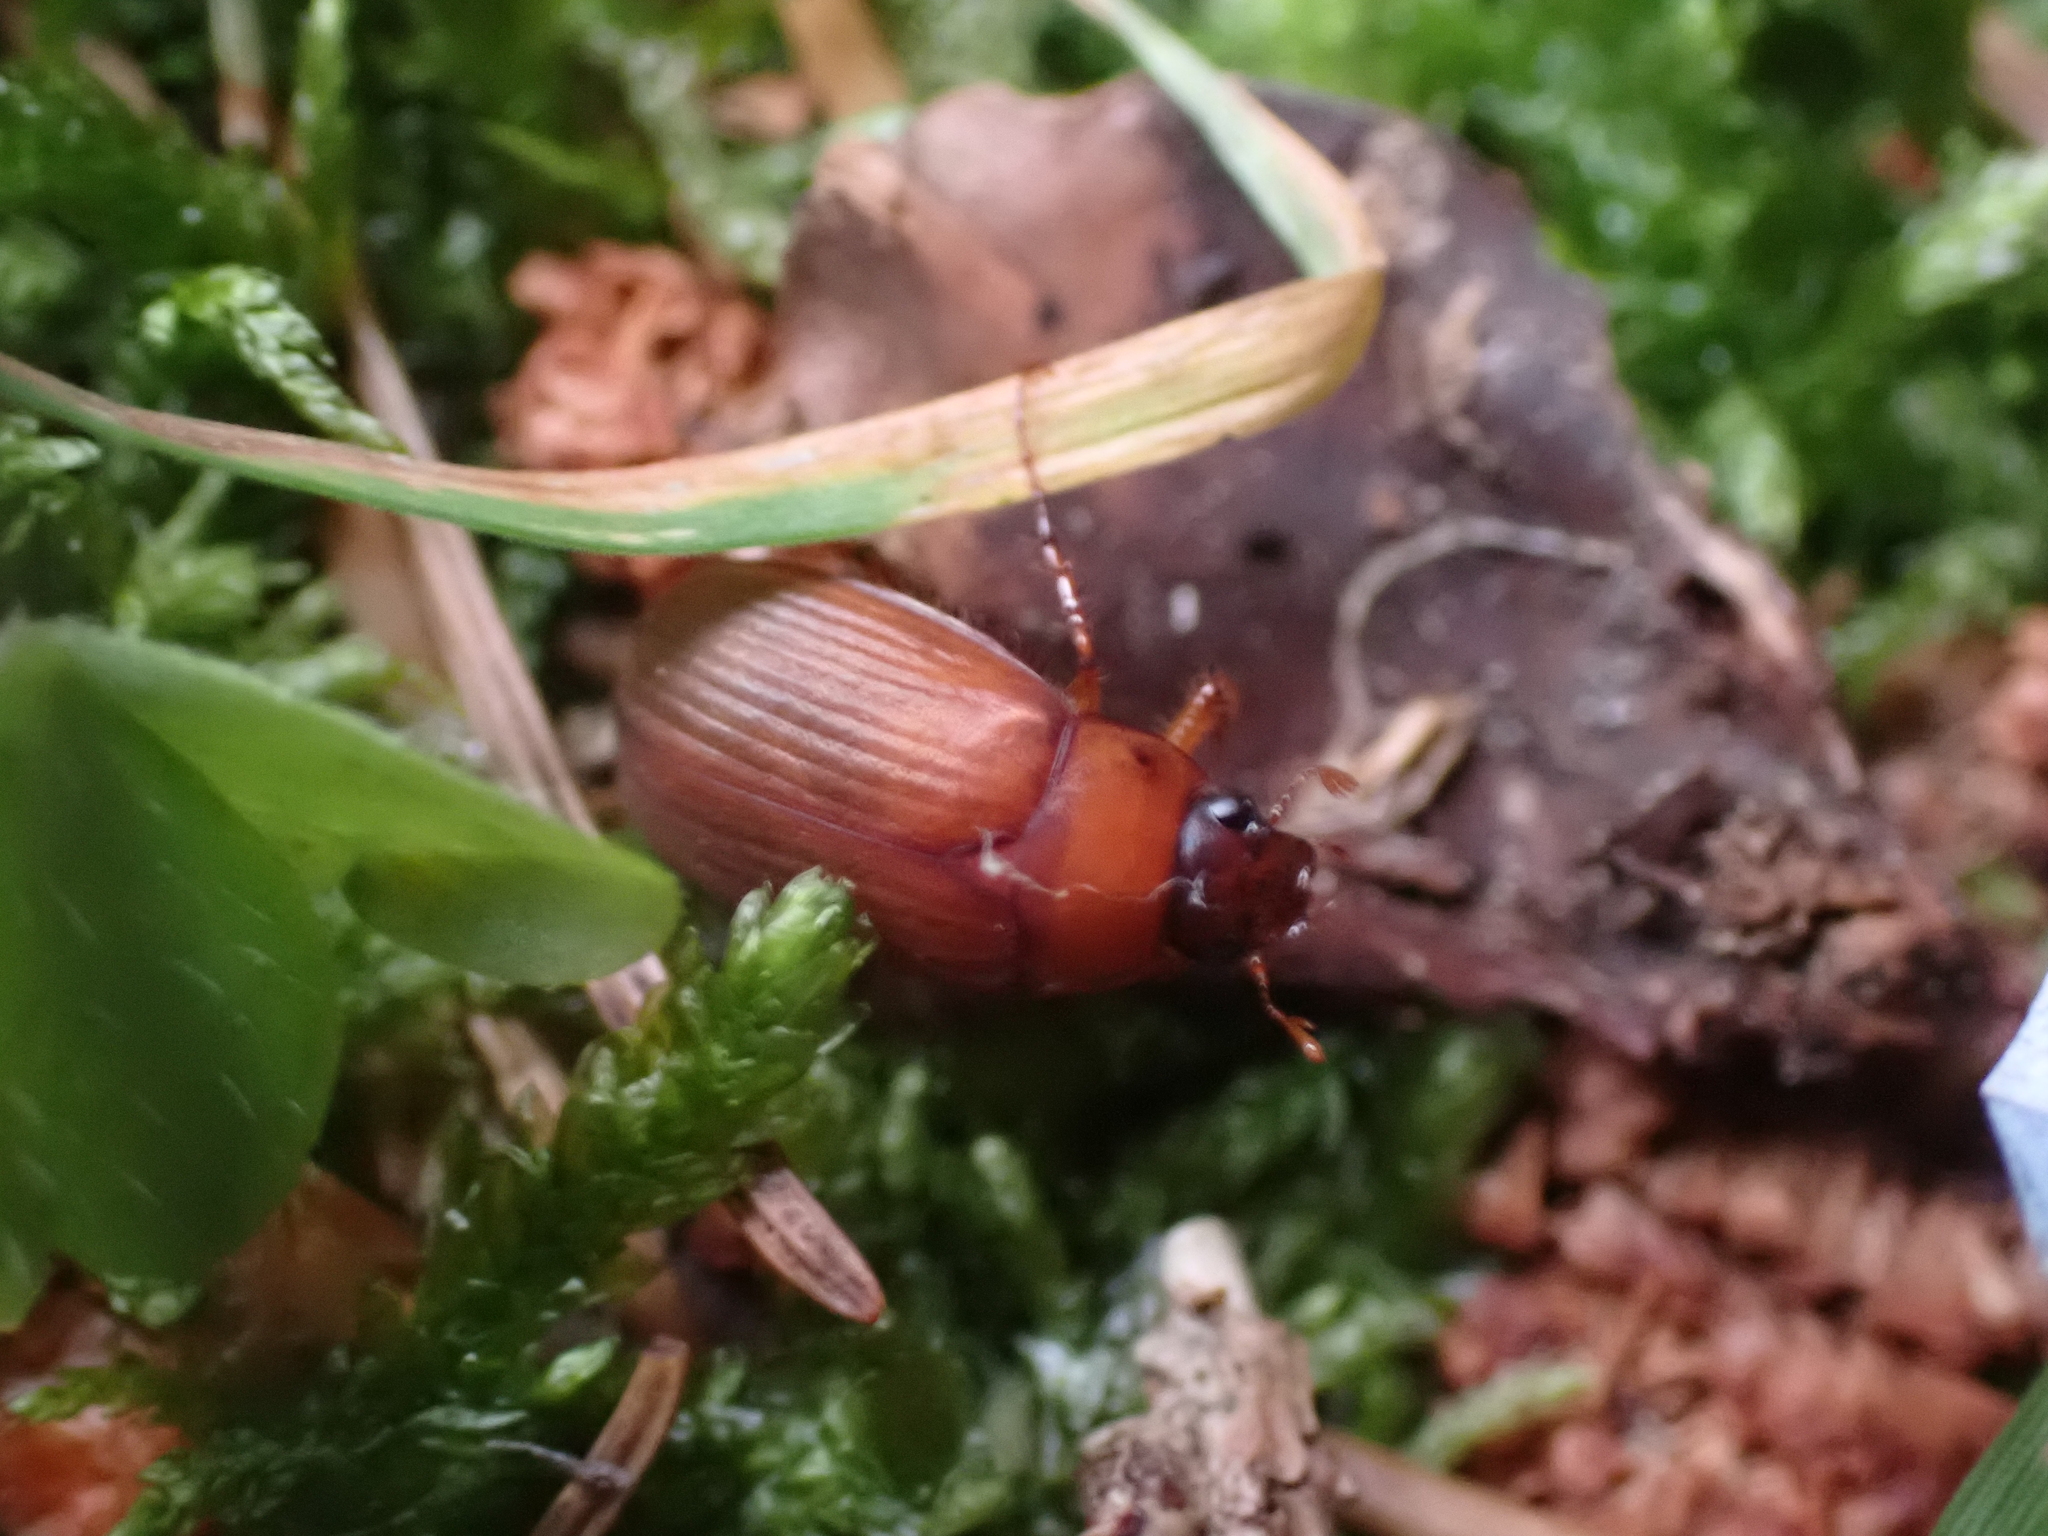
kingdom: Animalia
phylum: Arthropoda
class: Insecta
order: Coleoptera
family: Scarabaeidae
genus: Serica
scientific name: Serica brunnea
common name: Brown chafer
